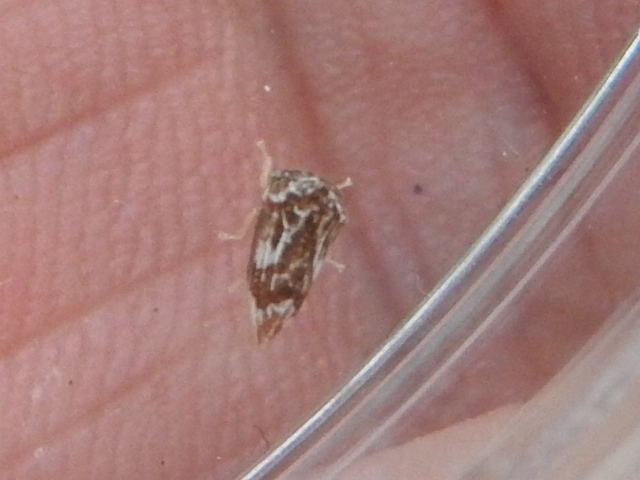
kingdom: Animalia
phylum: Arthropoda
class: Insecta
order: Hemiptera
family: Membracidae
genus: Entylia
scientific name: Entylia carinata
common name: Keeled treehopper
